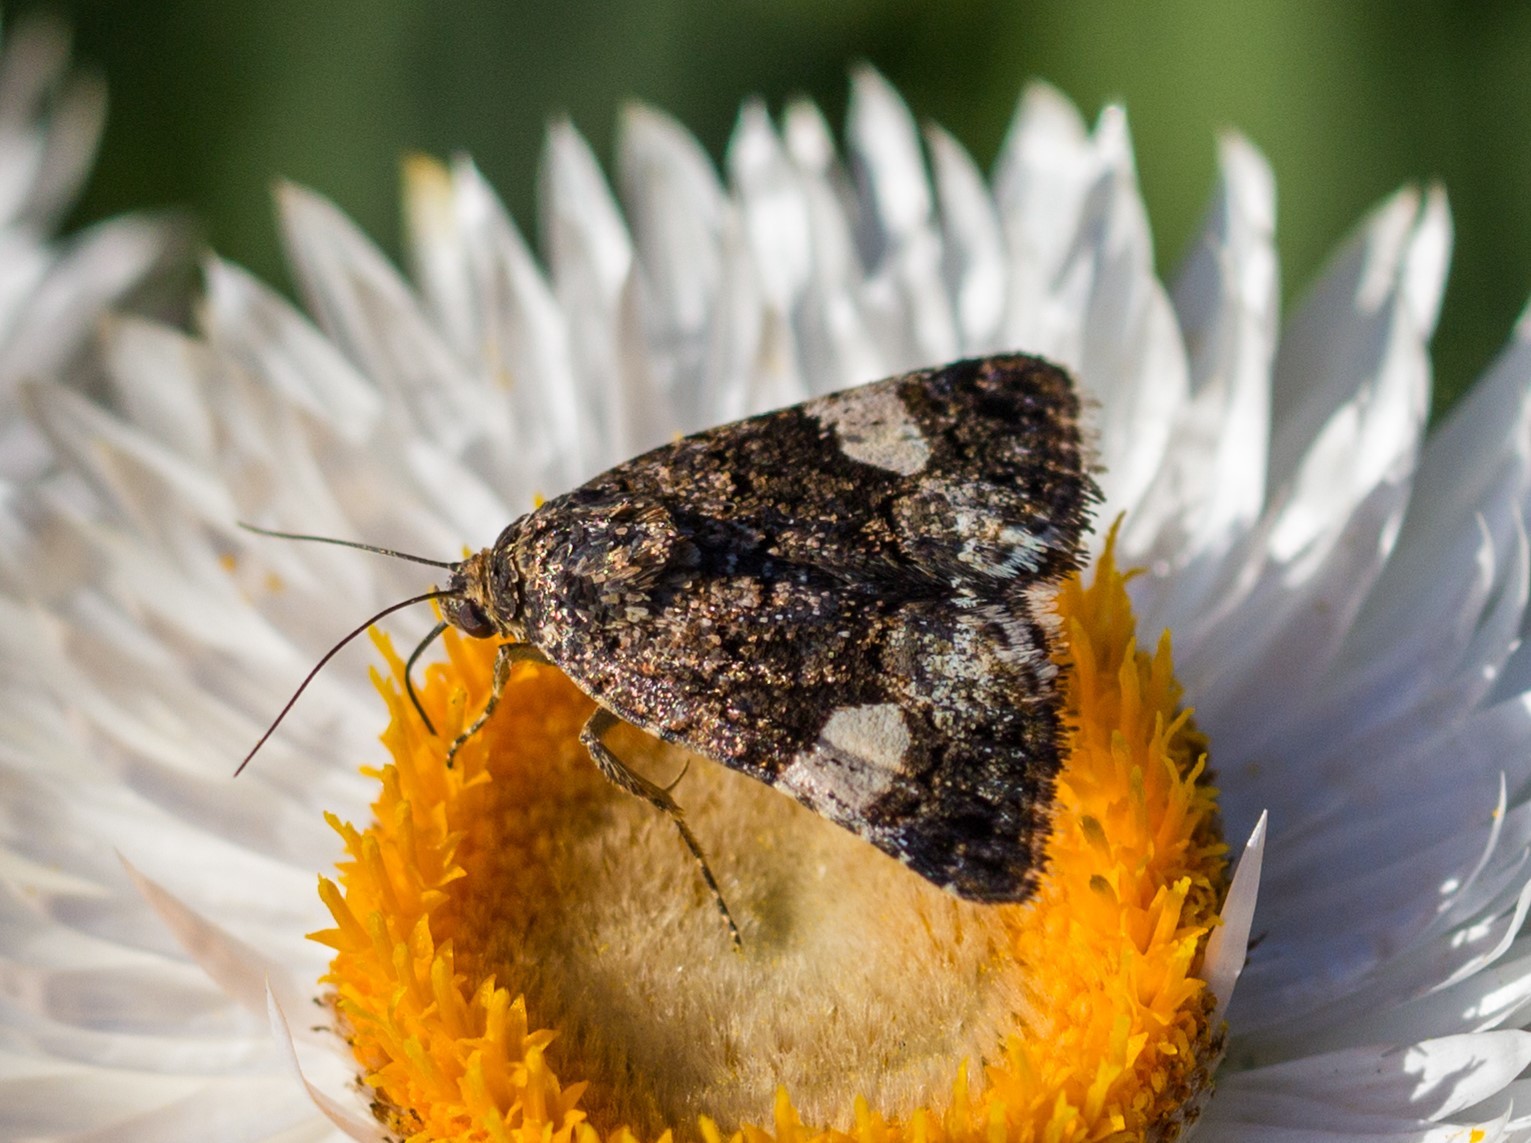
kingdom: Animalia
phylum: Arthropoda
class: Insecta
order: Lepidoptera
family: Erebidae
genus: Tyta
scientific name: Tyta luctuosa
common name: Four-spotted
